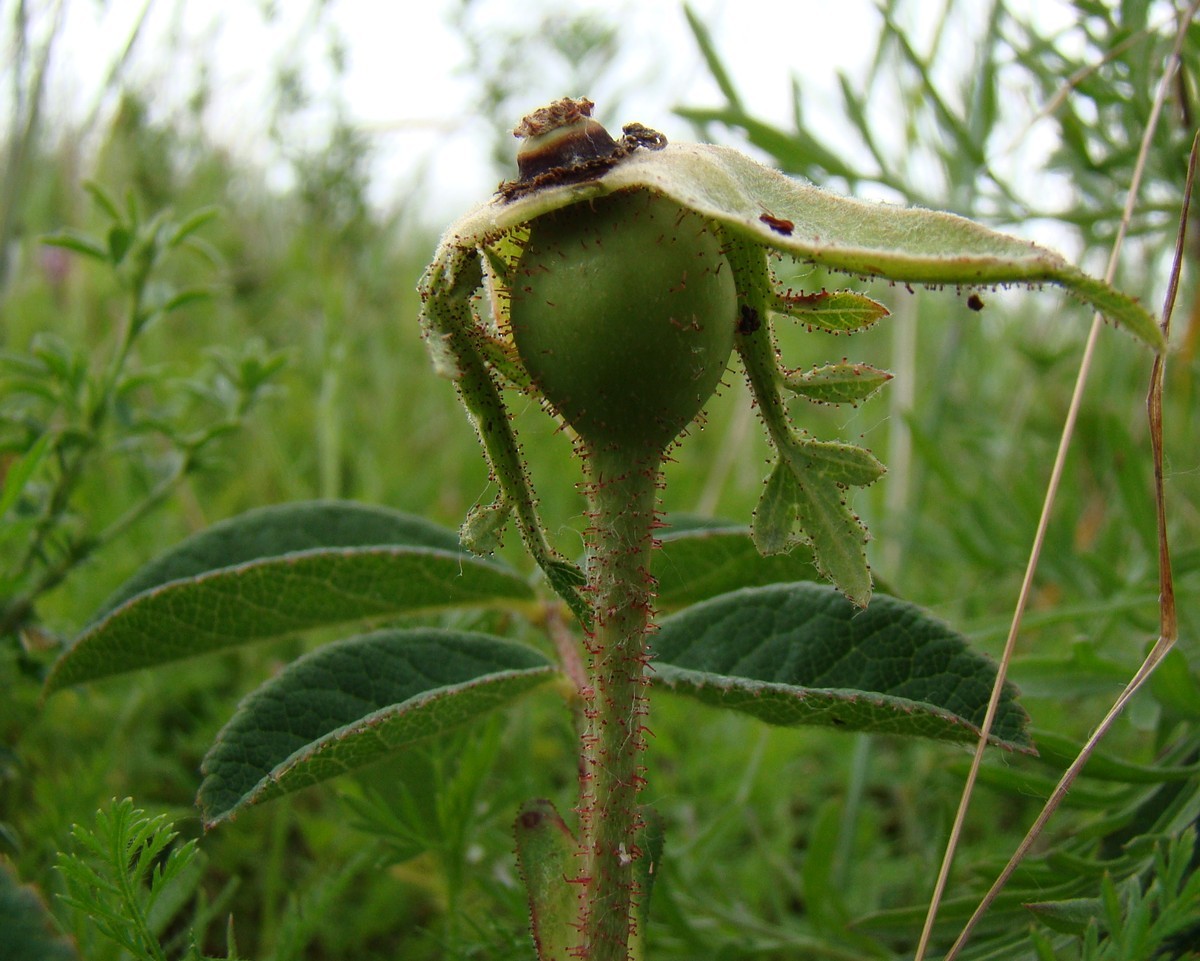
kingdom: Plantae
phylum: Tracheophyta
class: Magnoliopsida
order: Rosales
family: Rosaceae
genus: Rosa
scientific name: Rosa gallica
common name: French rose
